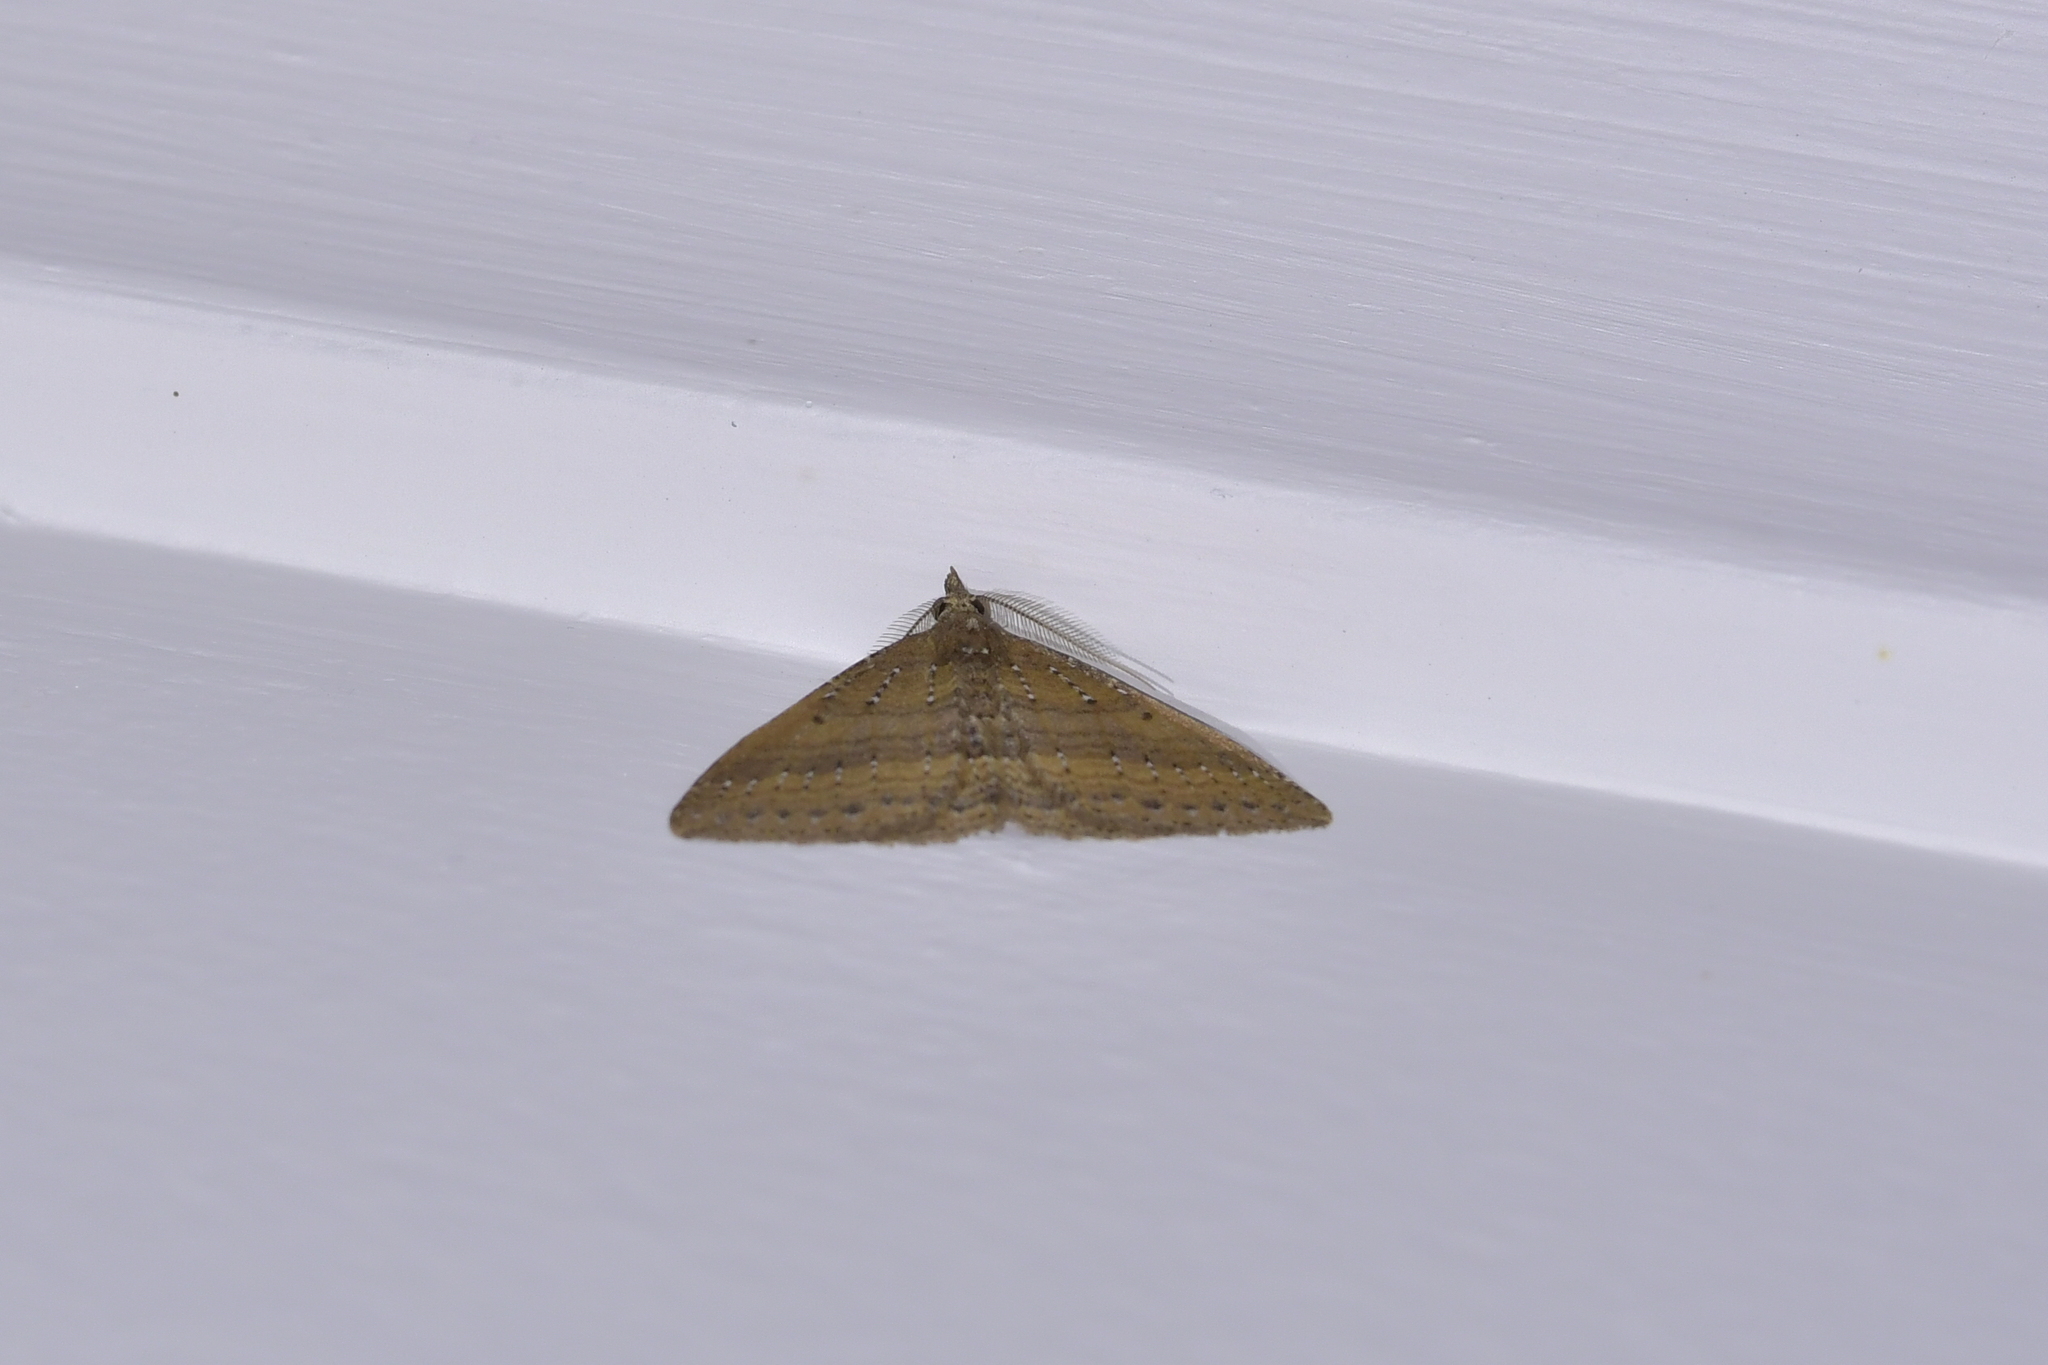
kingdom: Animalia
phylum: Arthropoda
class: Insecta
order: Lepidoptera
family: Geometridae
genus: Epyaxa
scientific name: Epyaxa venipunctata
